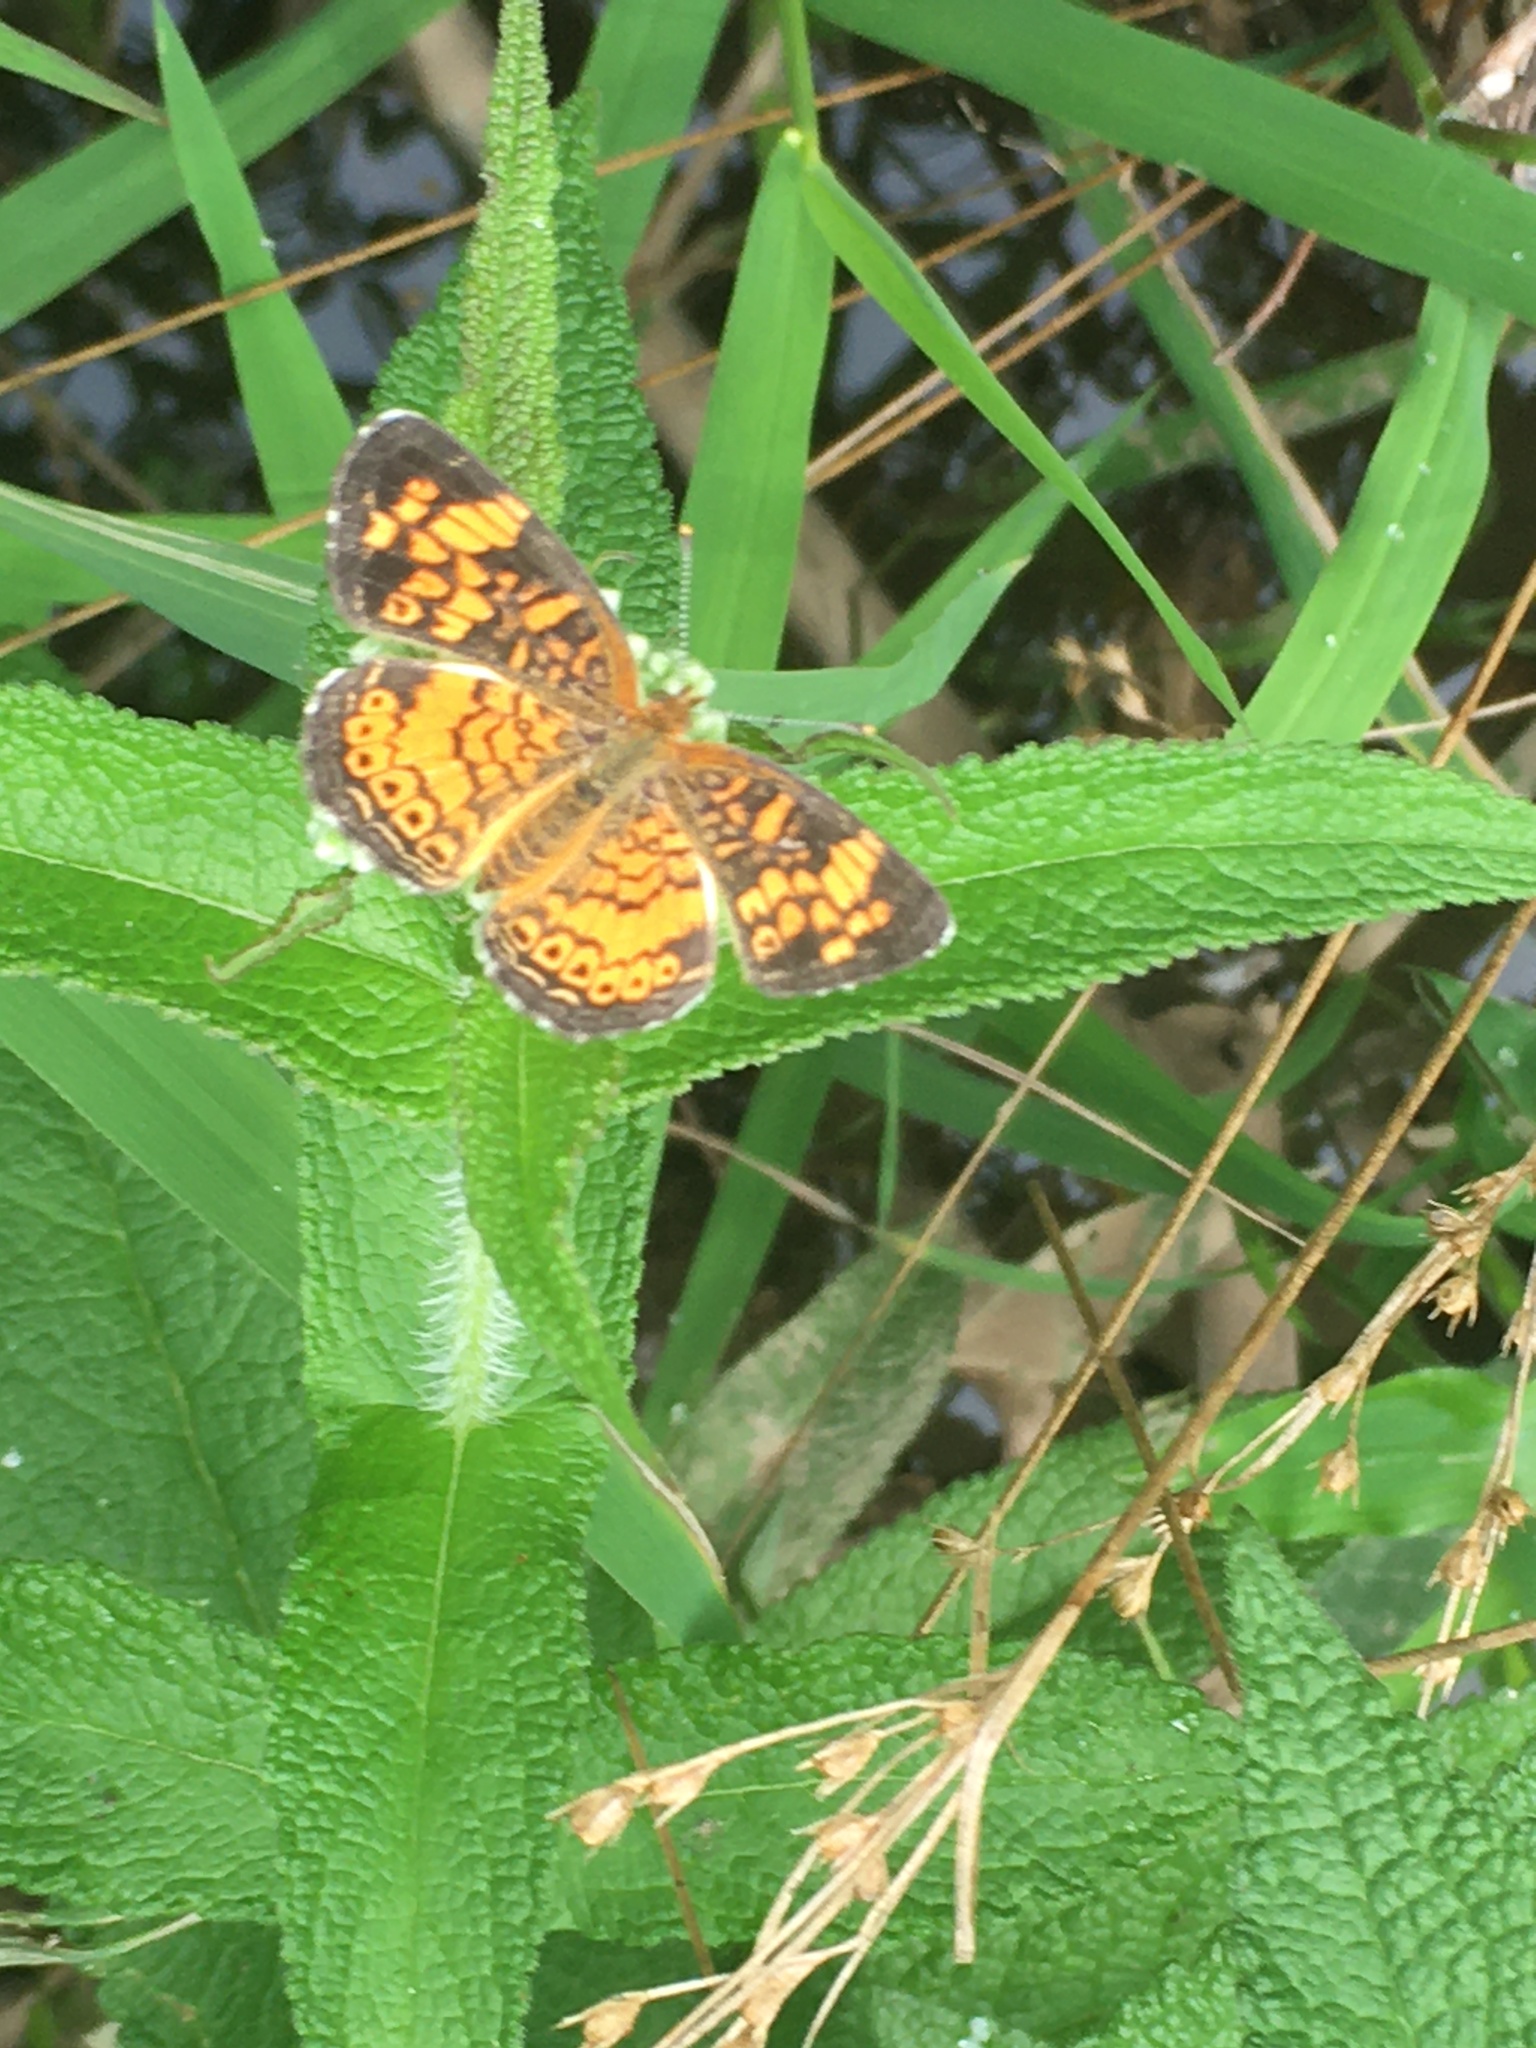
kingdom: Animalia
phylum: Arthropoda
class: Insecta
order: Lepidoptera
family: Nymphalidae
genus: Phyciodes
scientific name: Phyciodes tharos
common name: Pearl crescent
